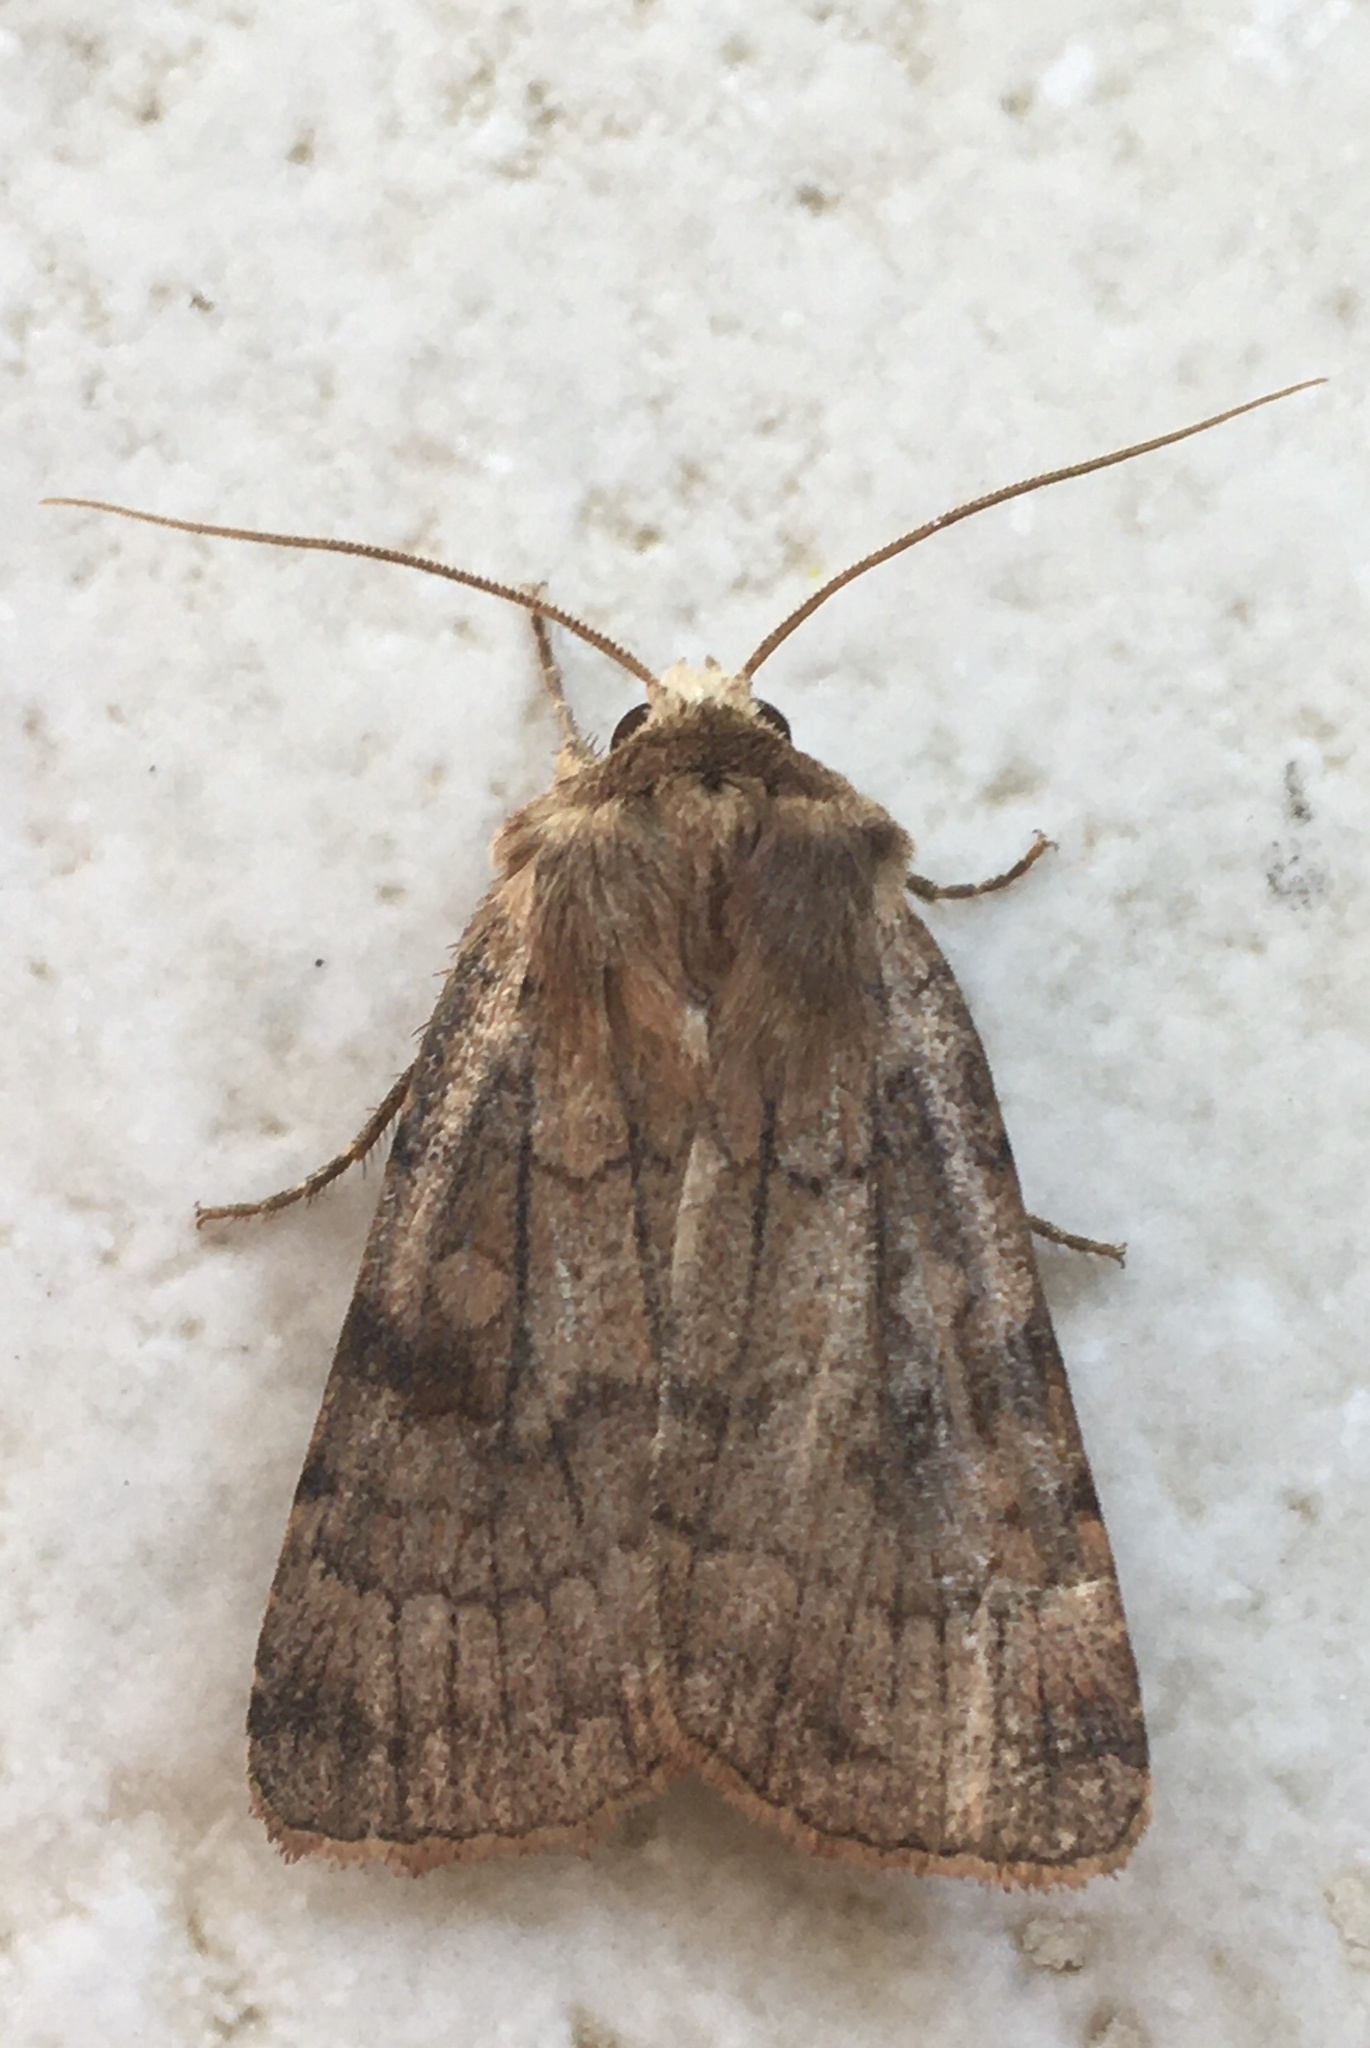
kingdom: Animalia
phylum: Arthropoda
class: Insecta
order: Lepidoptera
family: Noctuidae
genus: Xestia
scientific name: Xestia sexstrigata
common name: Six-striped rustic
